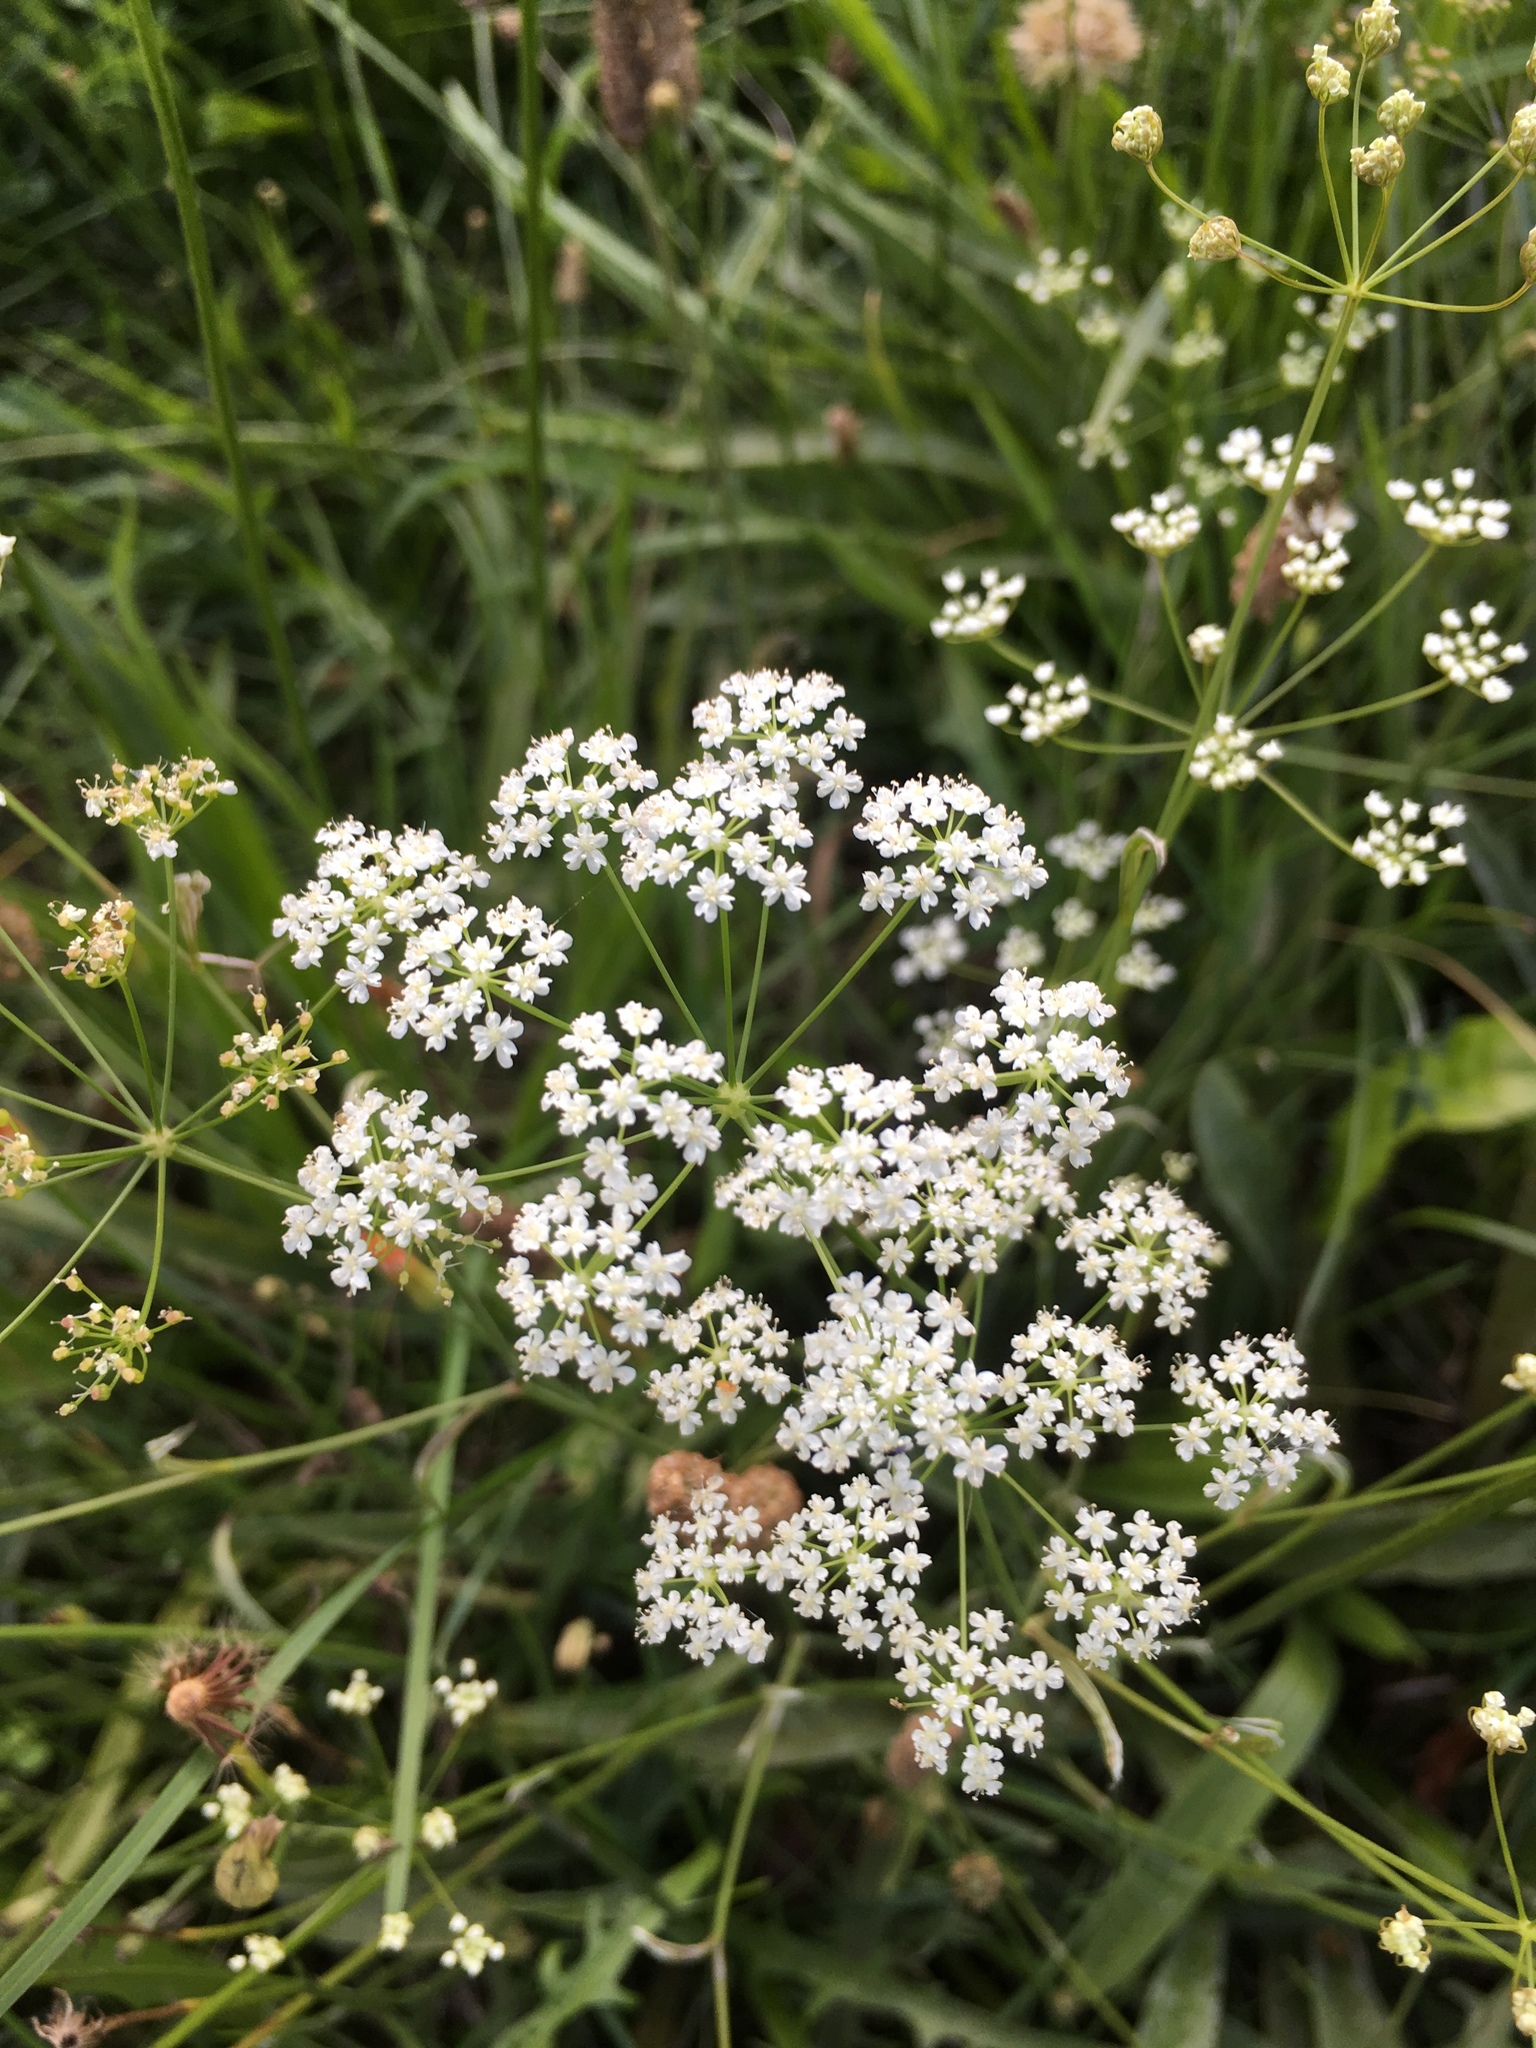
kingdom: Plantae
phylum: Tracheophyta
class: Magnoliopsida
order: Apiales
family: Apiaceae
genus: Pimpinella
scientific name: Pimpinella saxifraga
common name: Burnet-saxifrage
